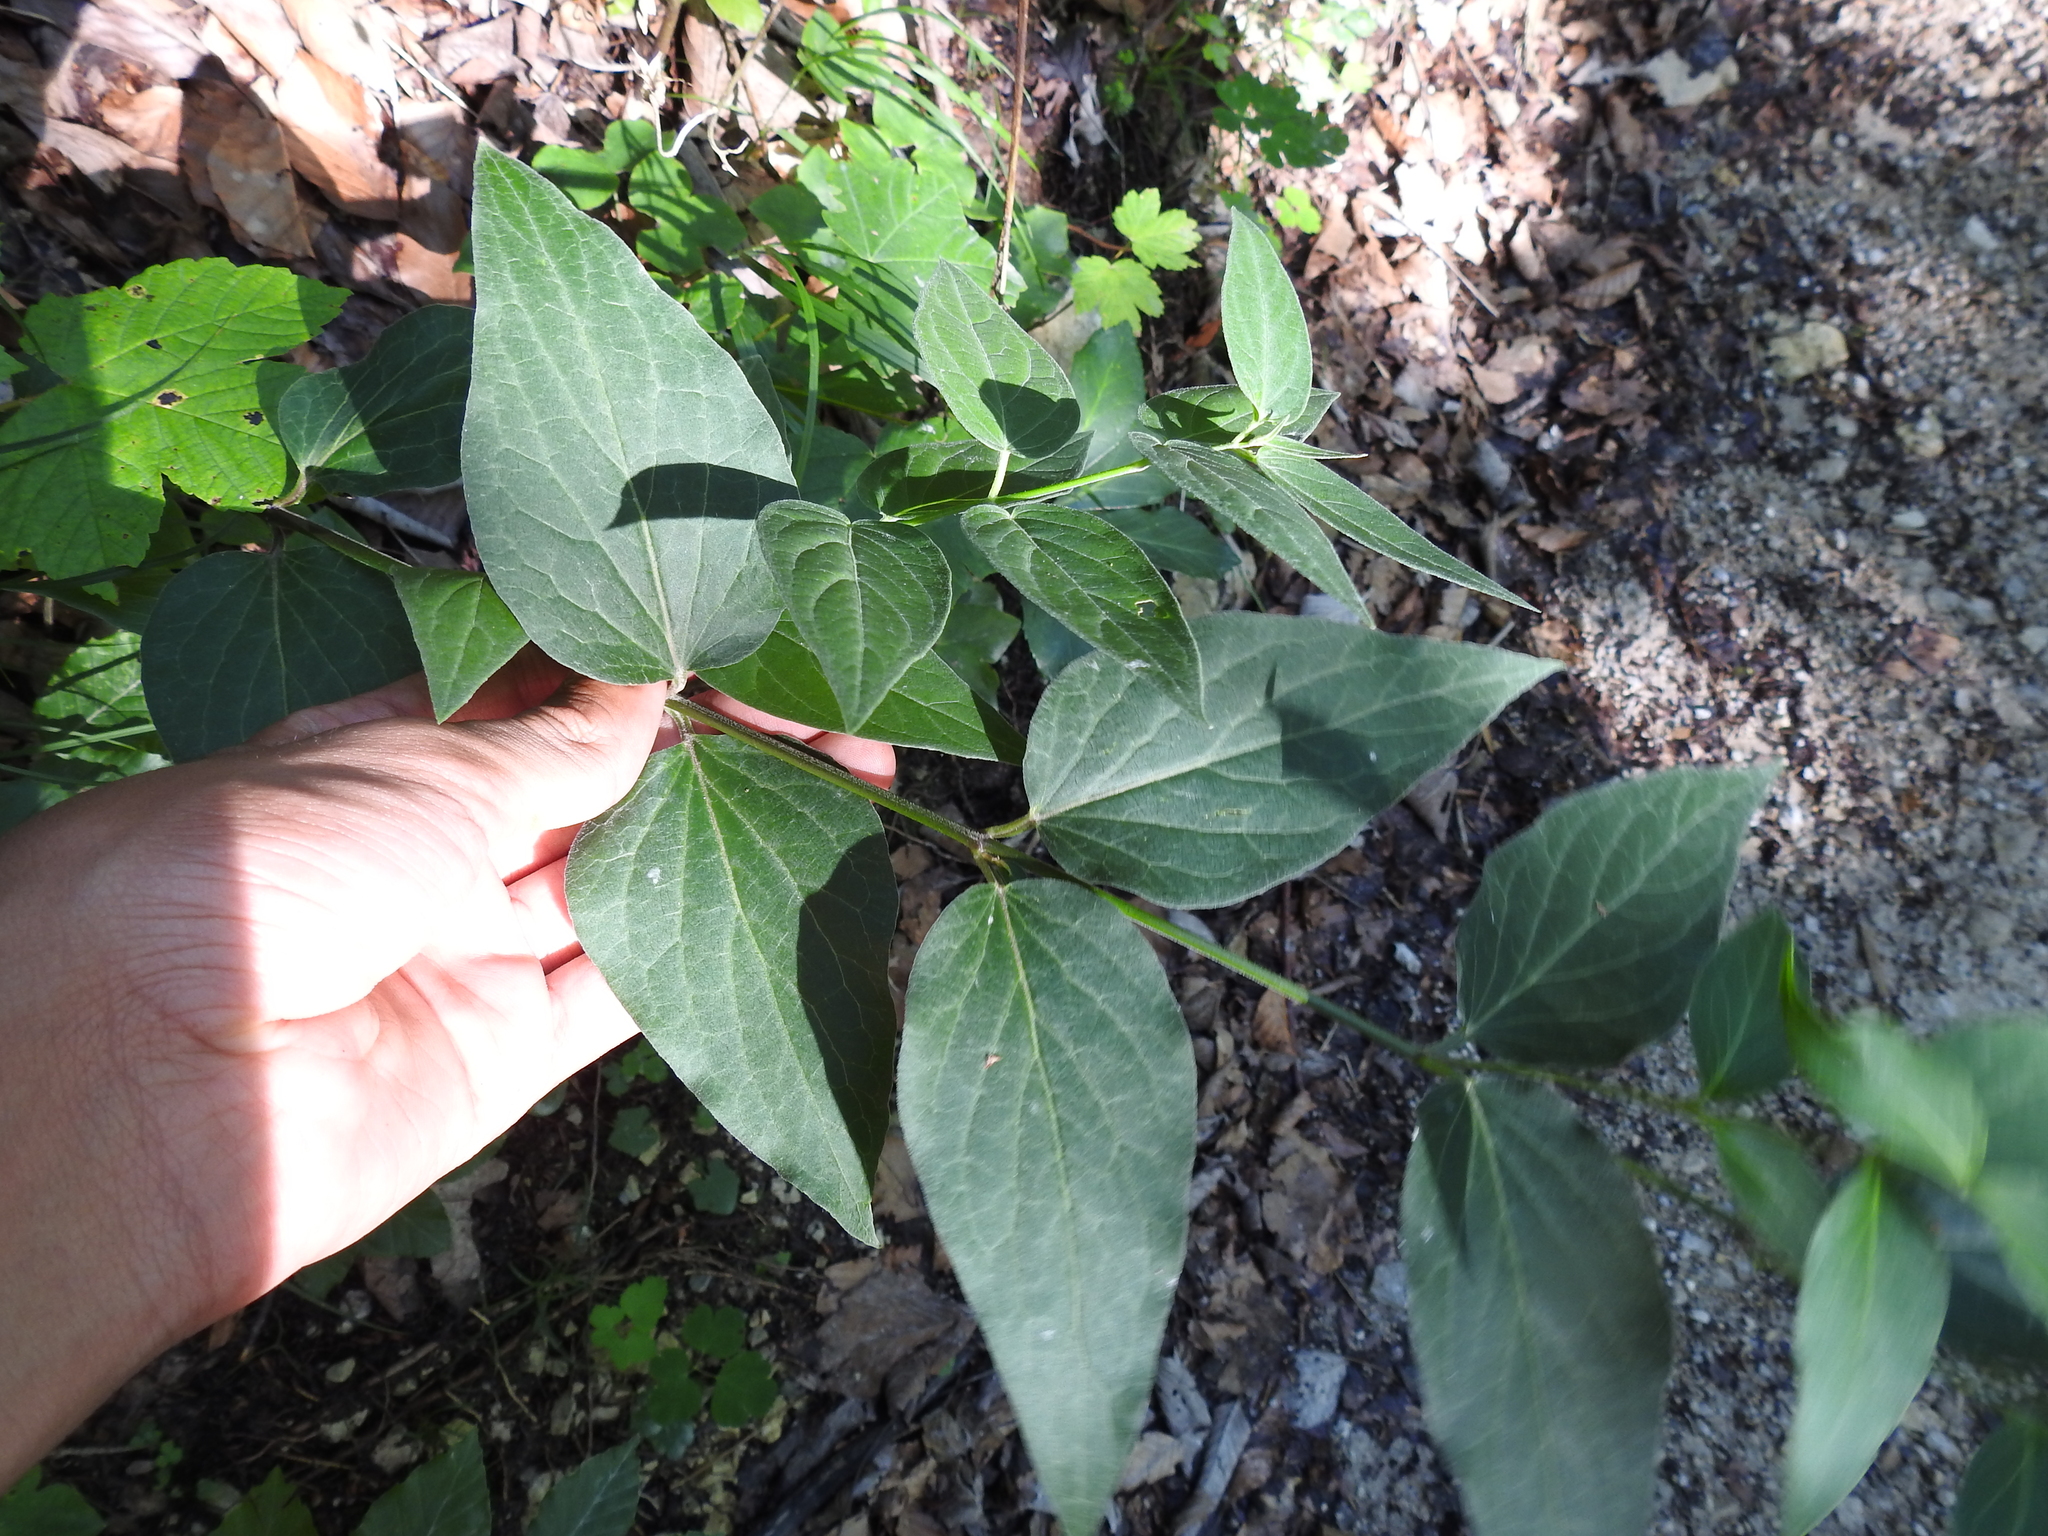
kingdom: Plantae
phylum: Tracheophyta
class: Magnoliopsida
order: Gentianales
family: Apocynaceae
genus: Vincetoxicum
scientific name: Vincetoxicum hirundinaria
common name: White swallowwort
